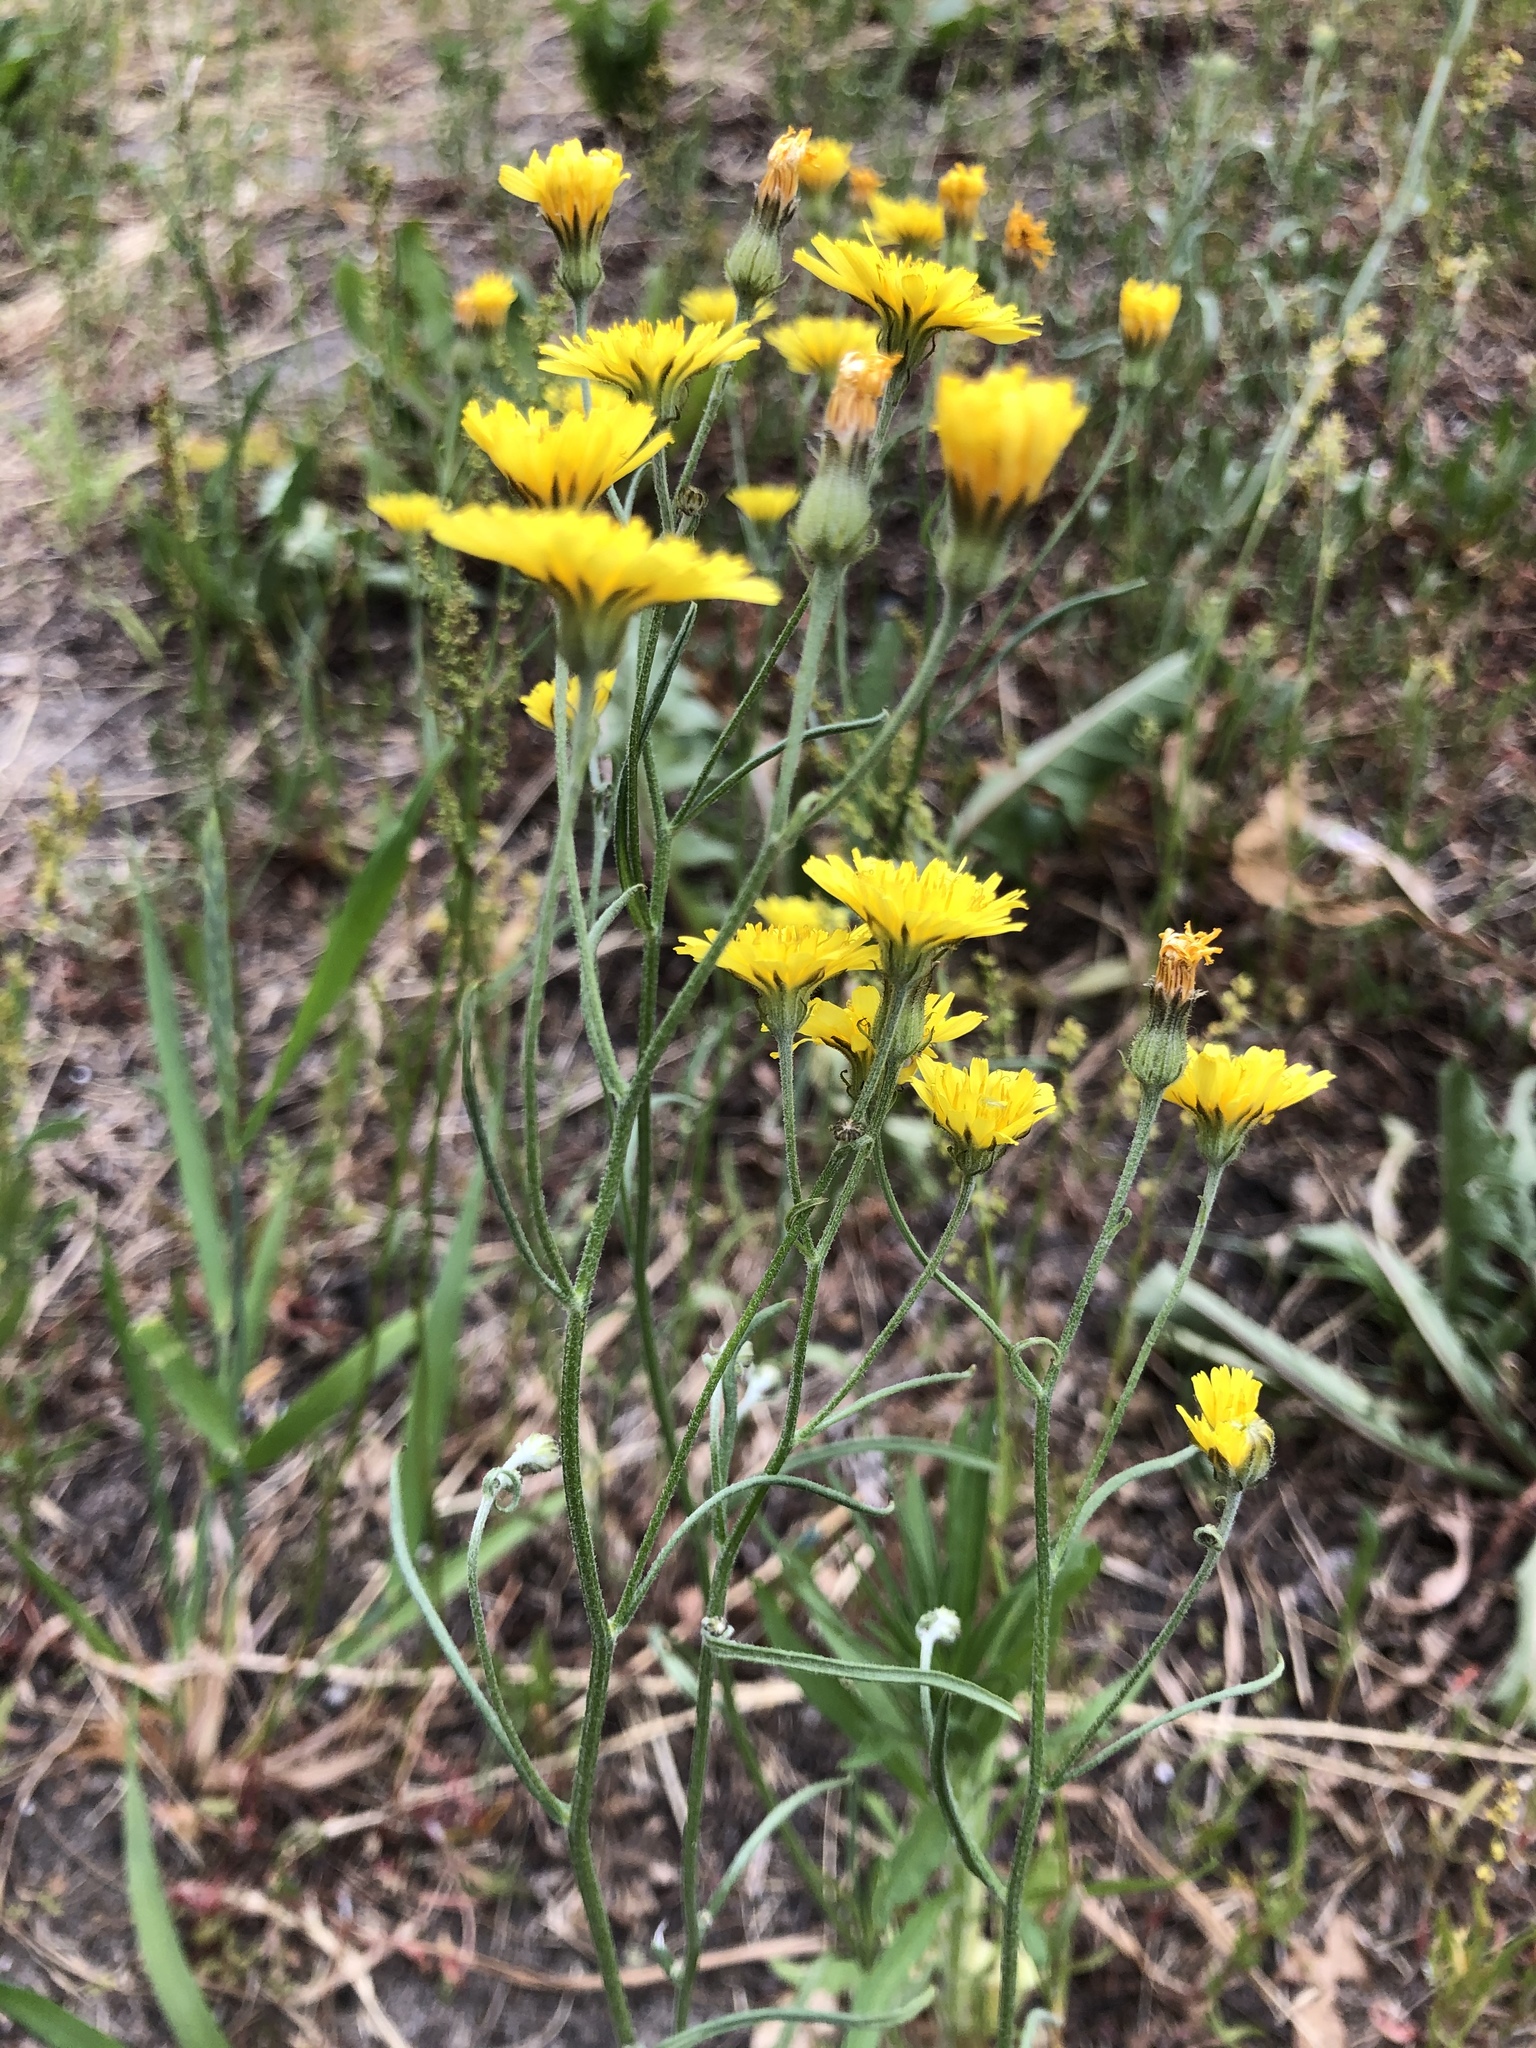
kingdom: Plantae
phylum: Tracheophyta
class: Magnoliopsida
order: Asterales
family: Asteraceae
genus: Crepis
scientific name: Crepis tectorum
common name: Narrow-leaved hawk's-beard
